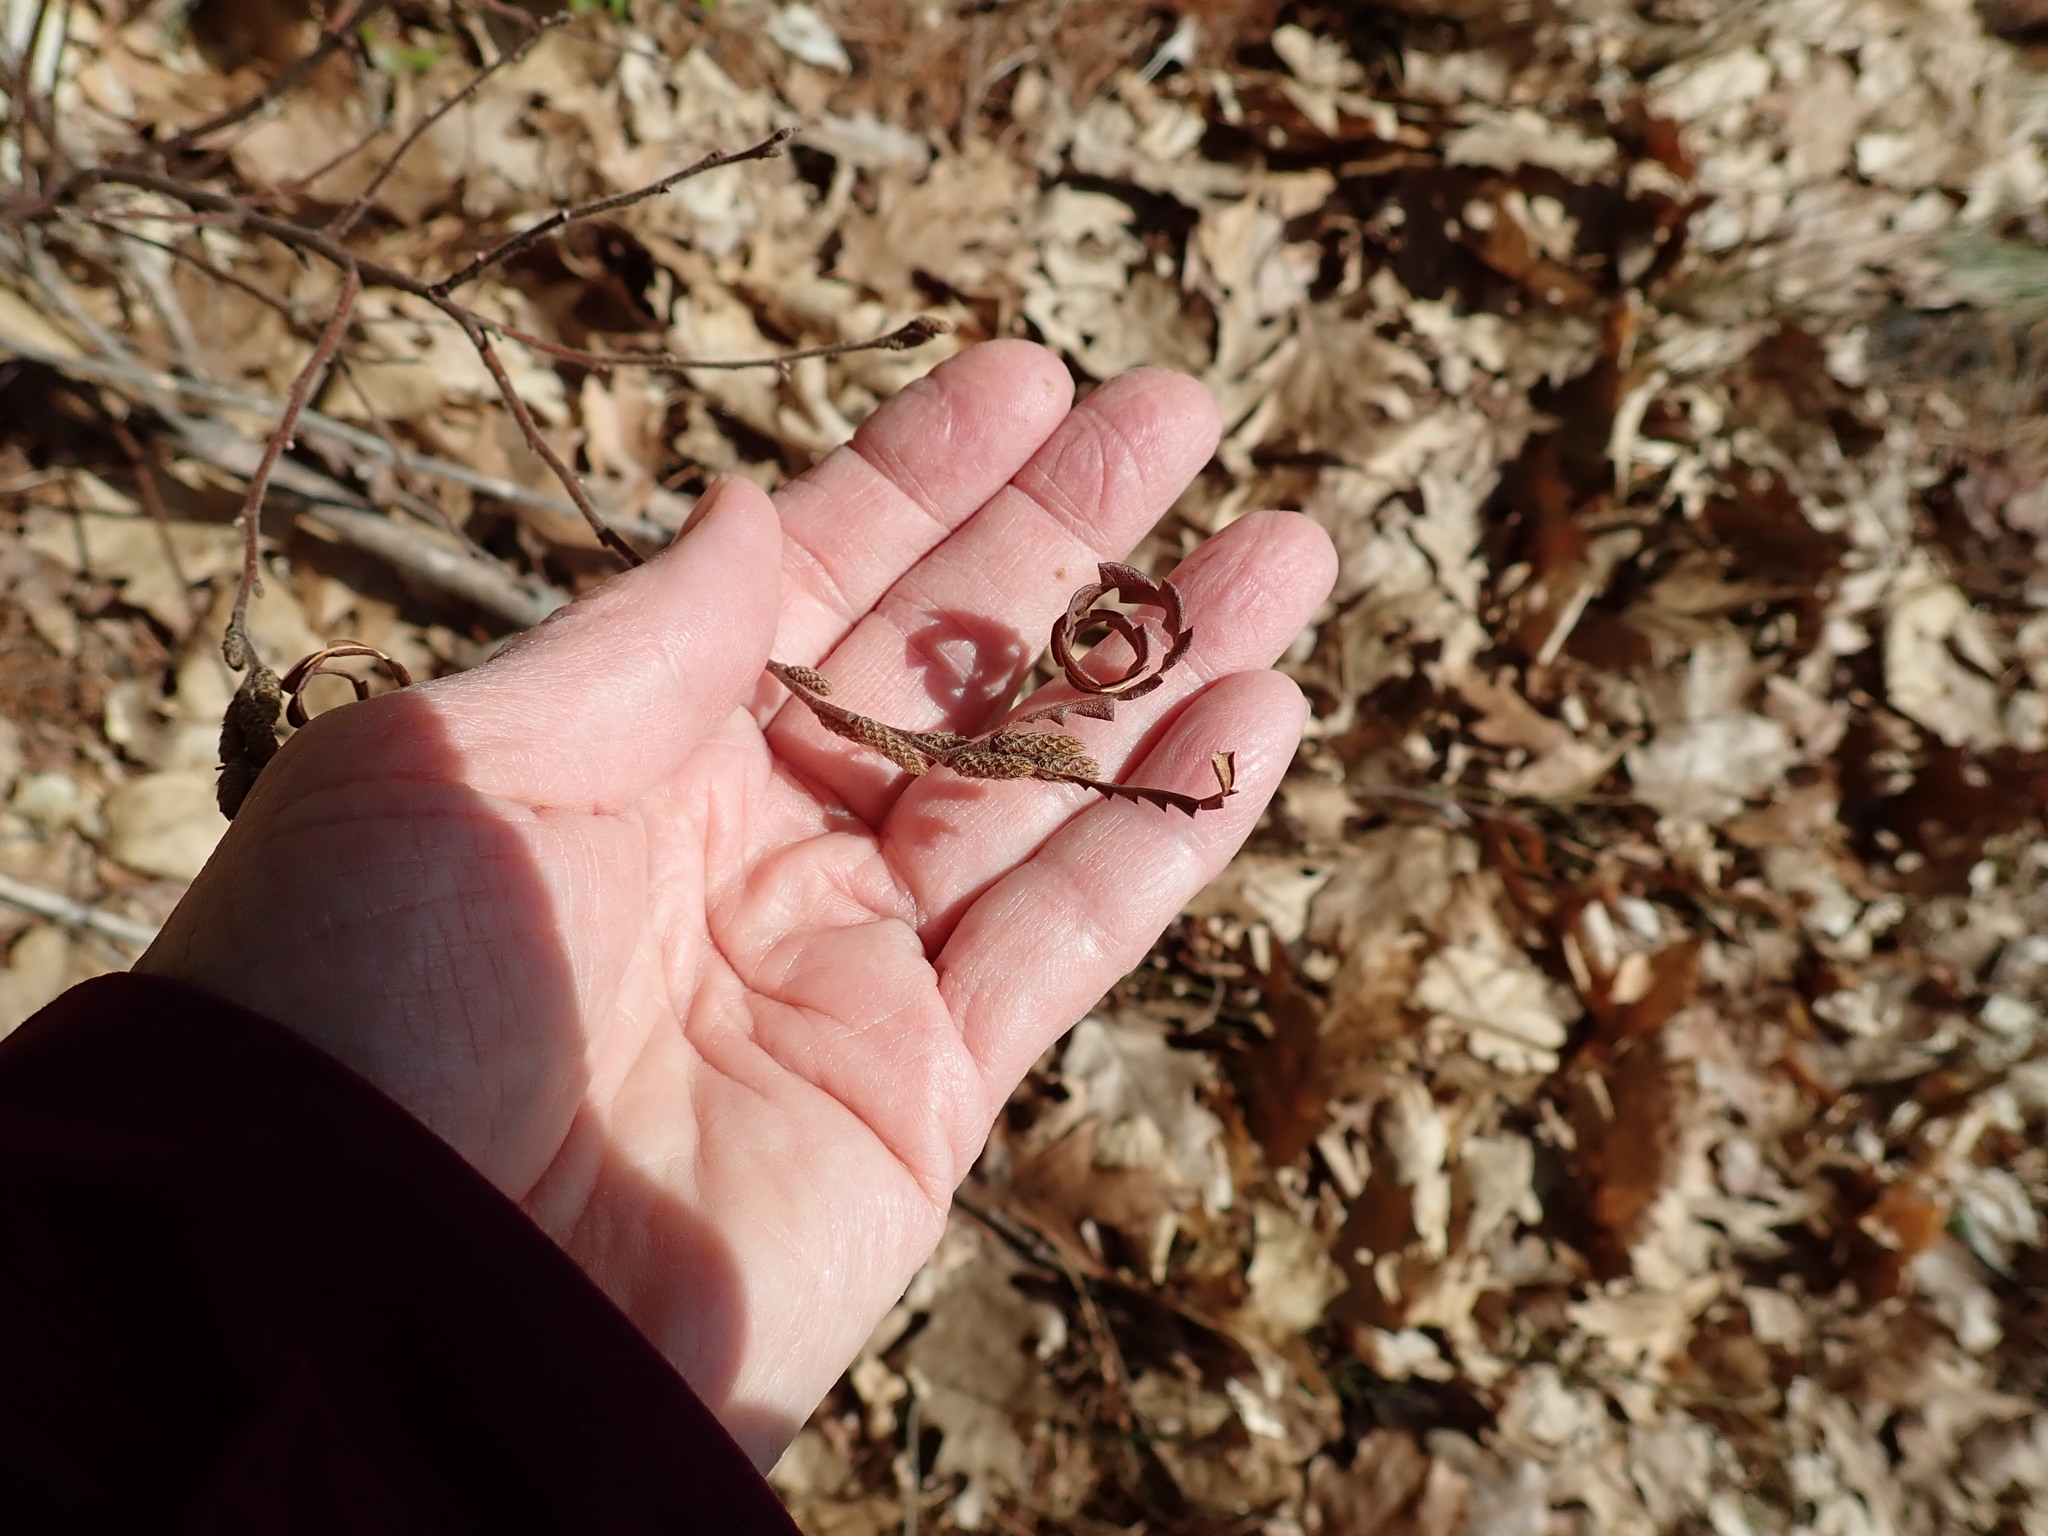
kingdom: Plantae
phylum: Tracheophyta
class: Magnoliopsida
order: Fagales
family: Myricaceae
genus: Comptonia
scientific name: Comptonia peregrina
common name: Sweet-fern
